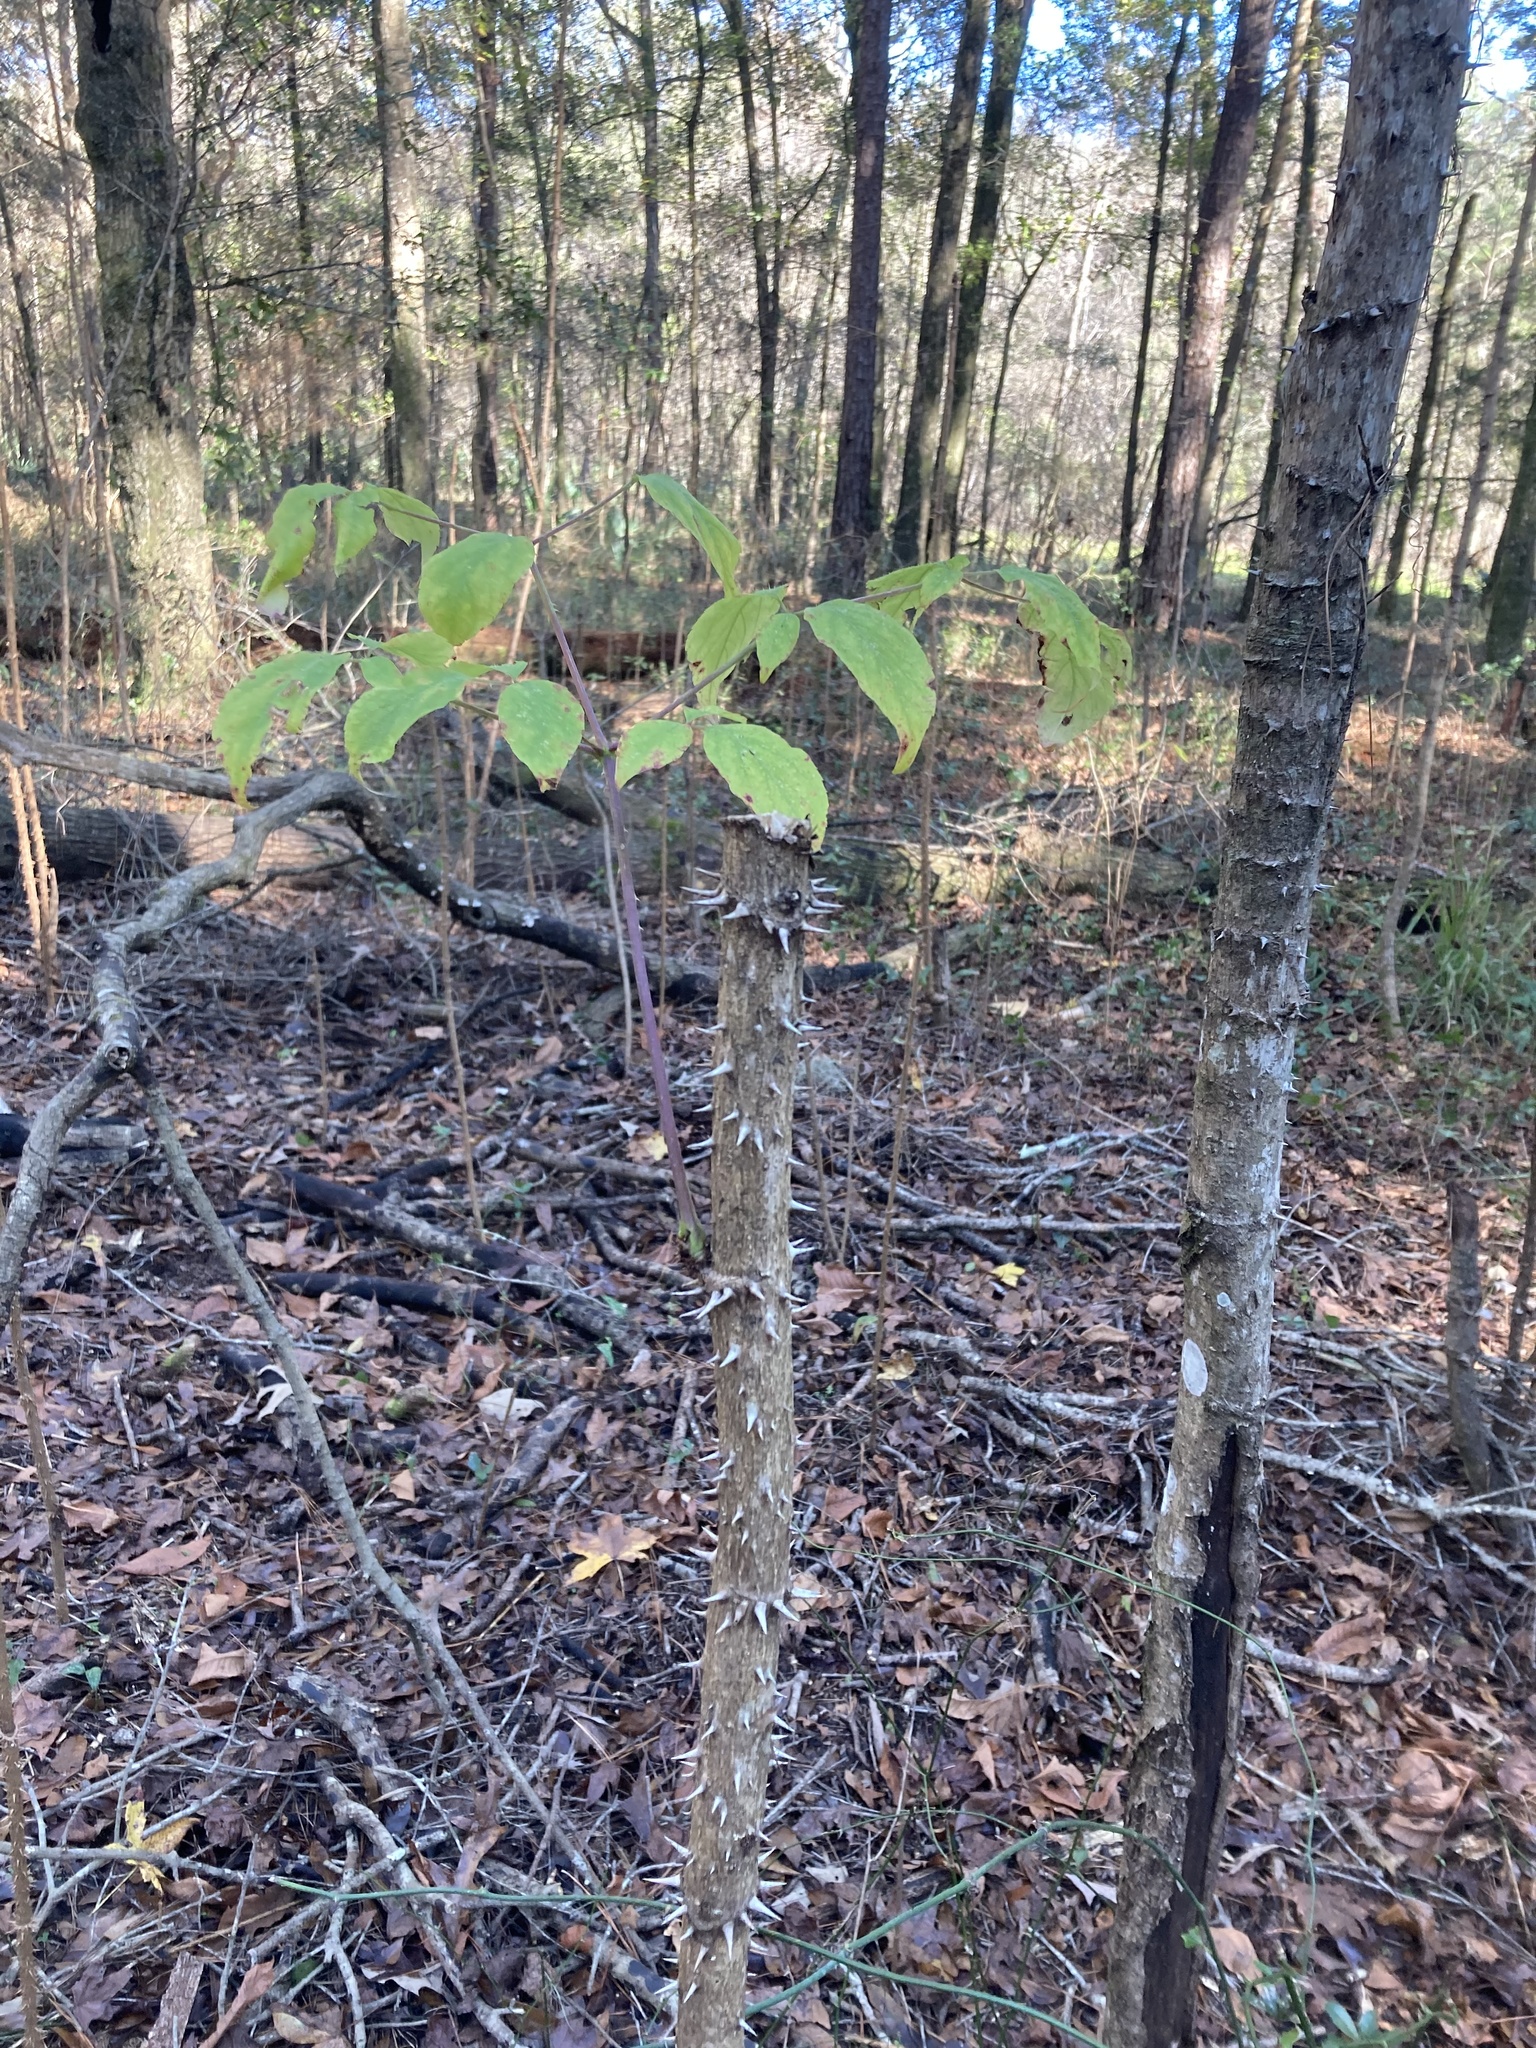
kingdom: Plantae
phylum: Tracheophyta
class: Magnoliopsida
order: Apiales
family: Araliaceae
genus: Aralia
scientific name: Aralia spinosa
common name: Hercules'-club
